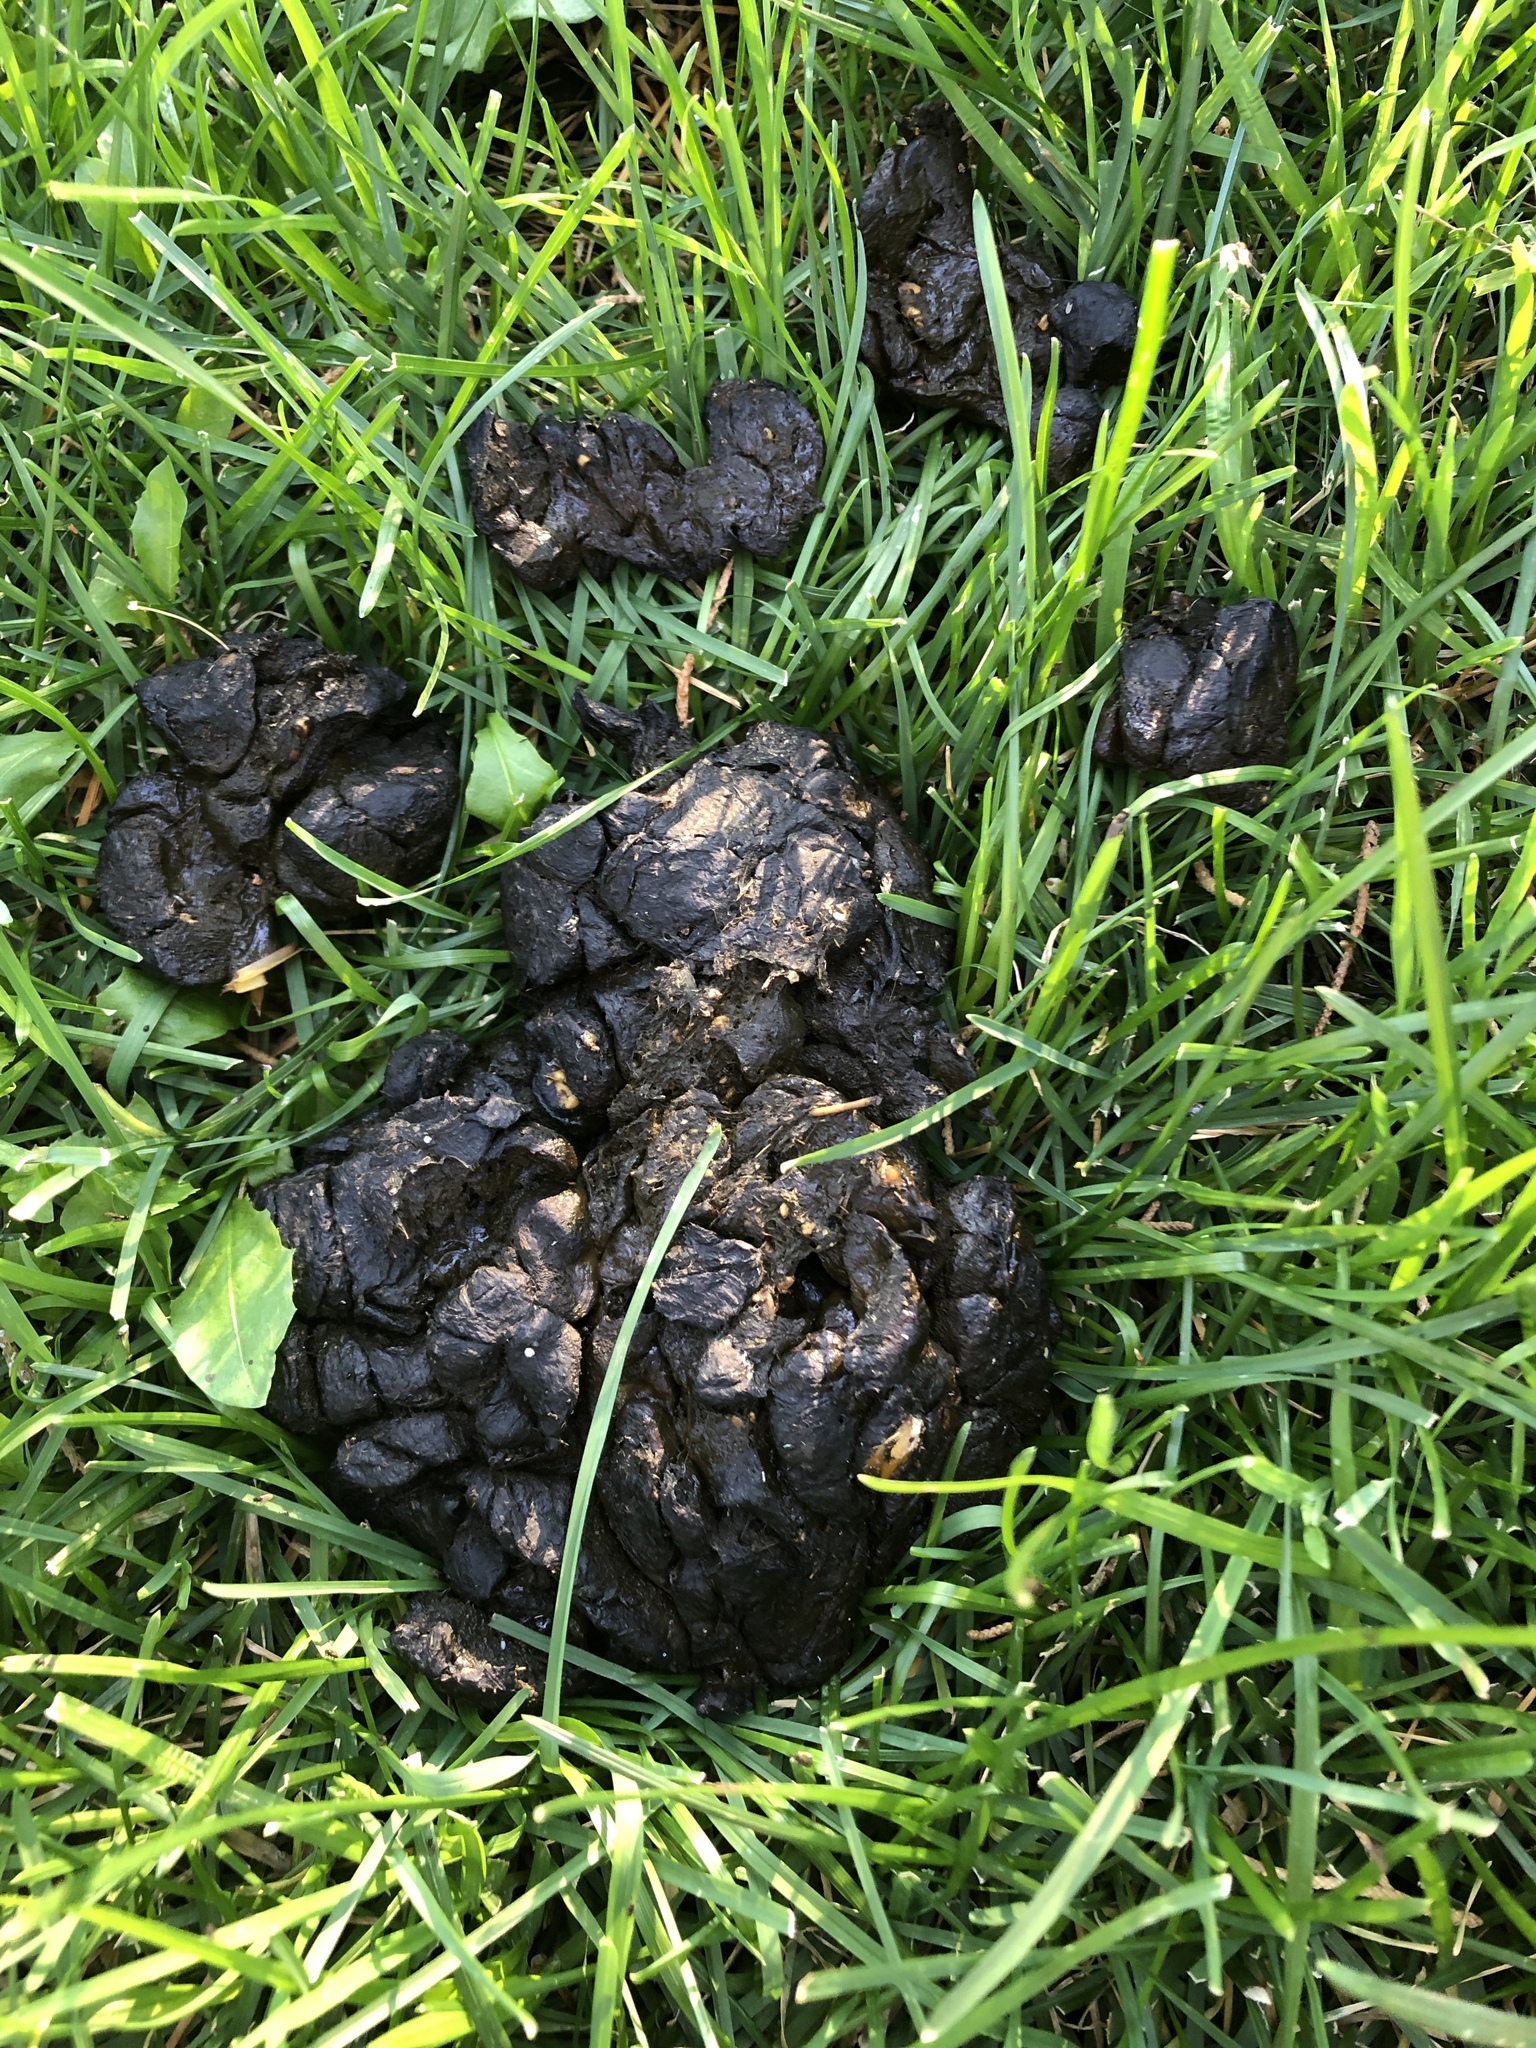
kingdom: Animalia
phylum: Chordata
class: Mammalia
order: Artiodactyla
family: Cervidae
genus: Odocoileus
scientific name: Odocoileus hemionus
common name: Mule deer
